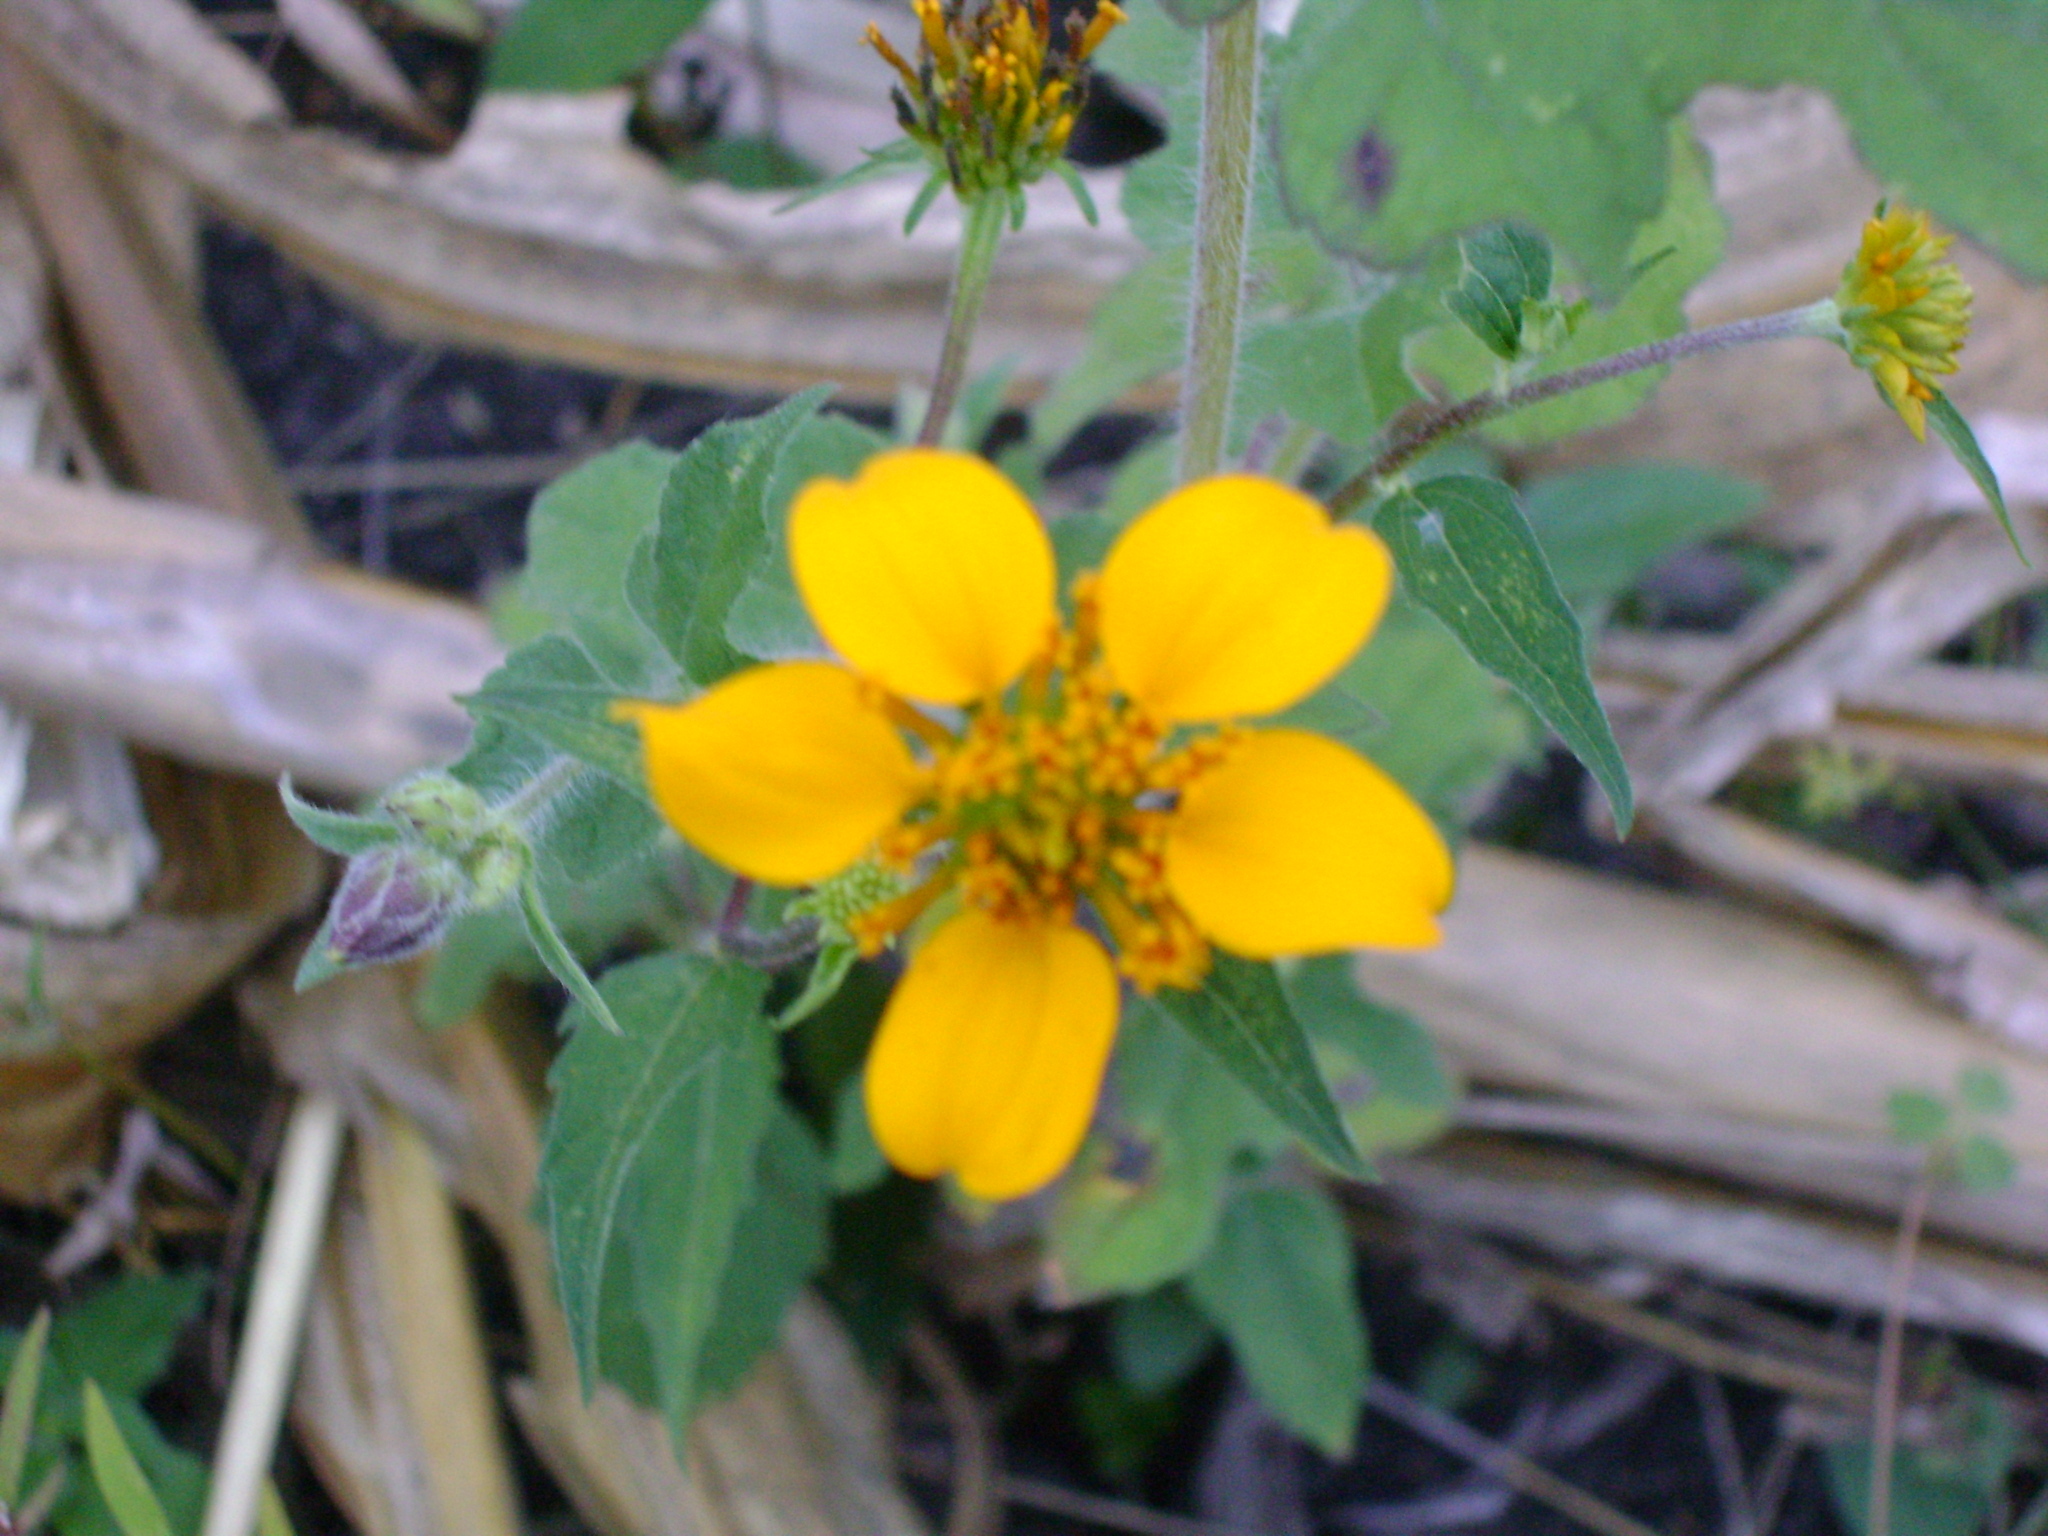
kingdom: Plantae
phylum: Tracheophyta
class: Magnoliopsida
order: Asterales
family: Asteraceae
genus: Sclerocarpus
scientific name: Sclerocarpus uniserialis
